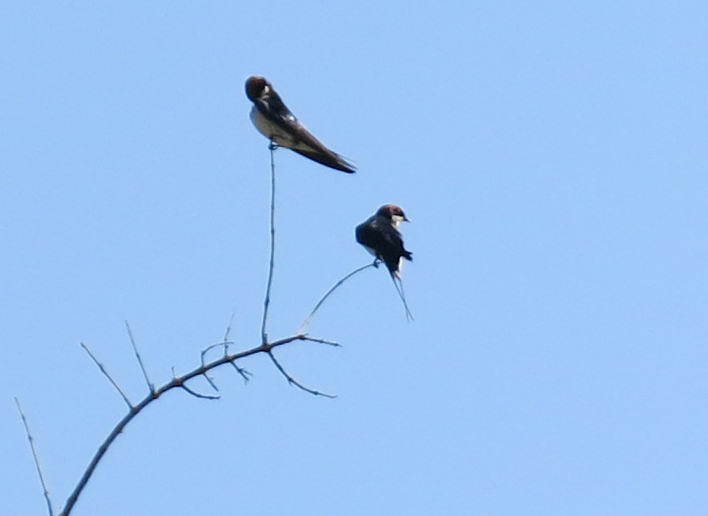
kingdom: Animalia
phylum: Chordata
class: Aves
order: Passeriformes
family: Hirundinidae
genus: Hirundo
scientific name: Hirundo smithii
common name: Wire-tailed swallow
